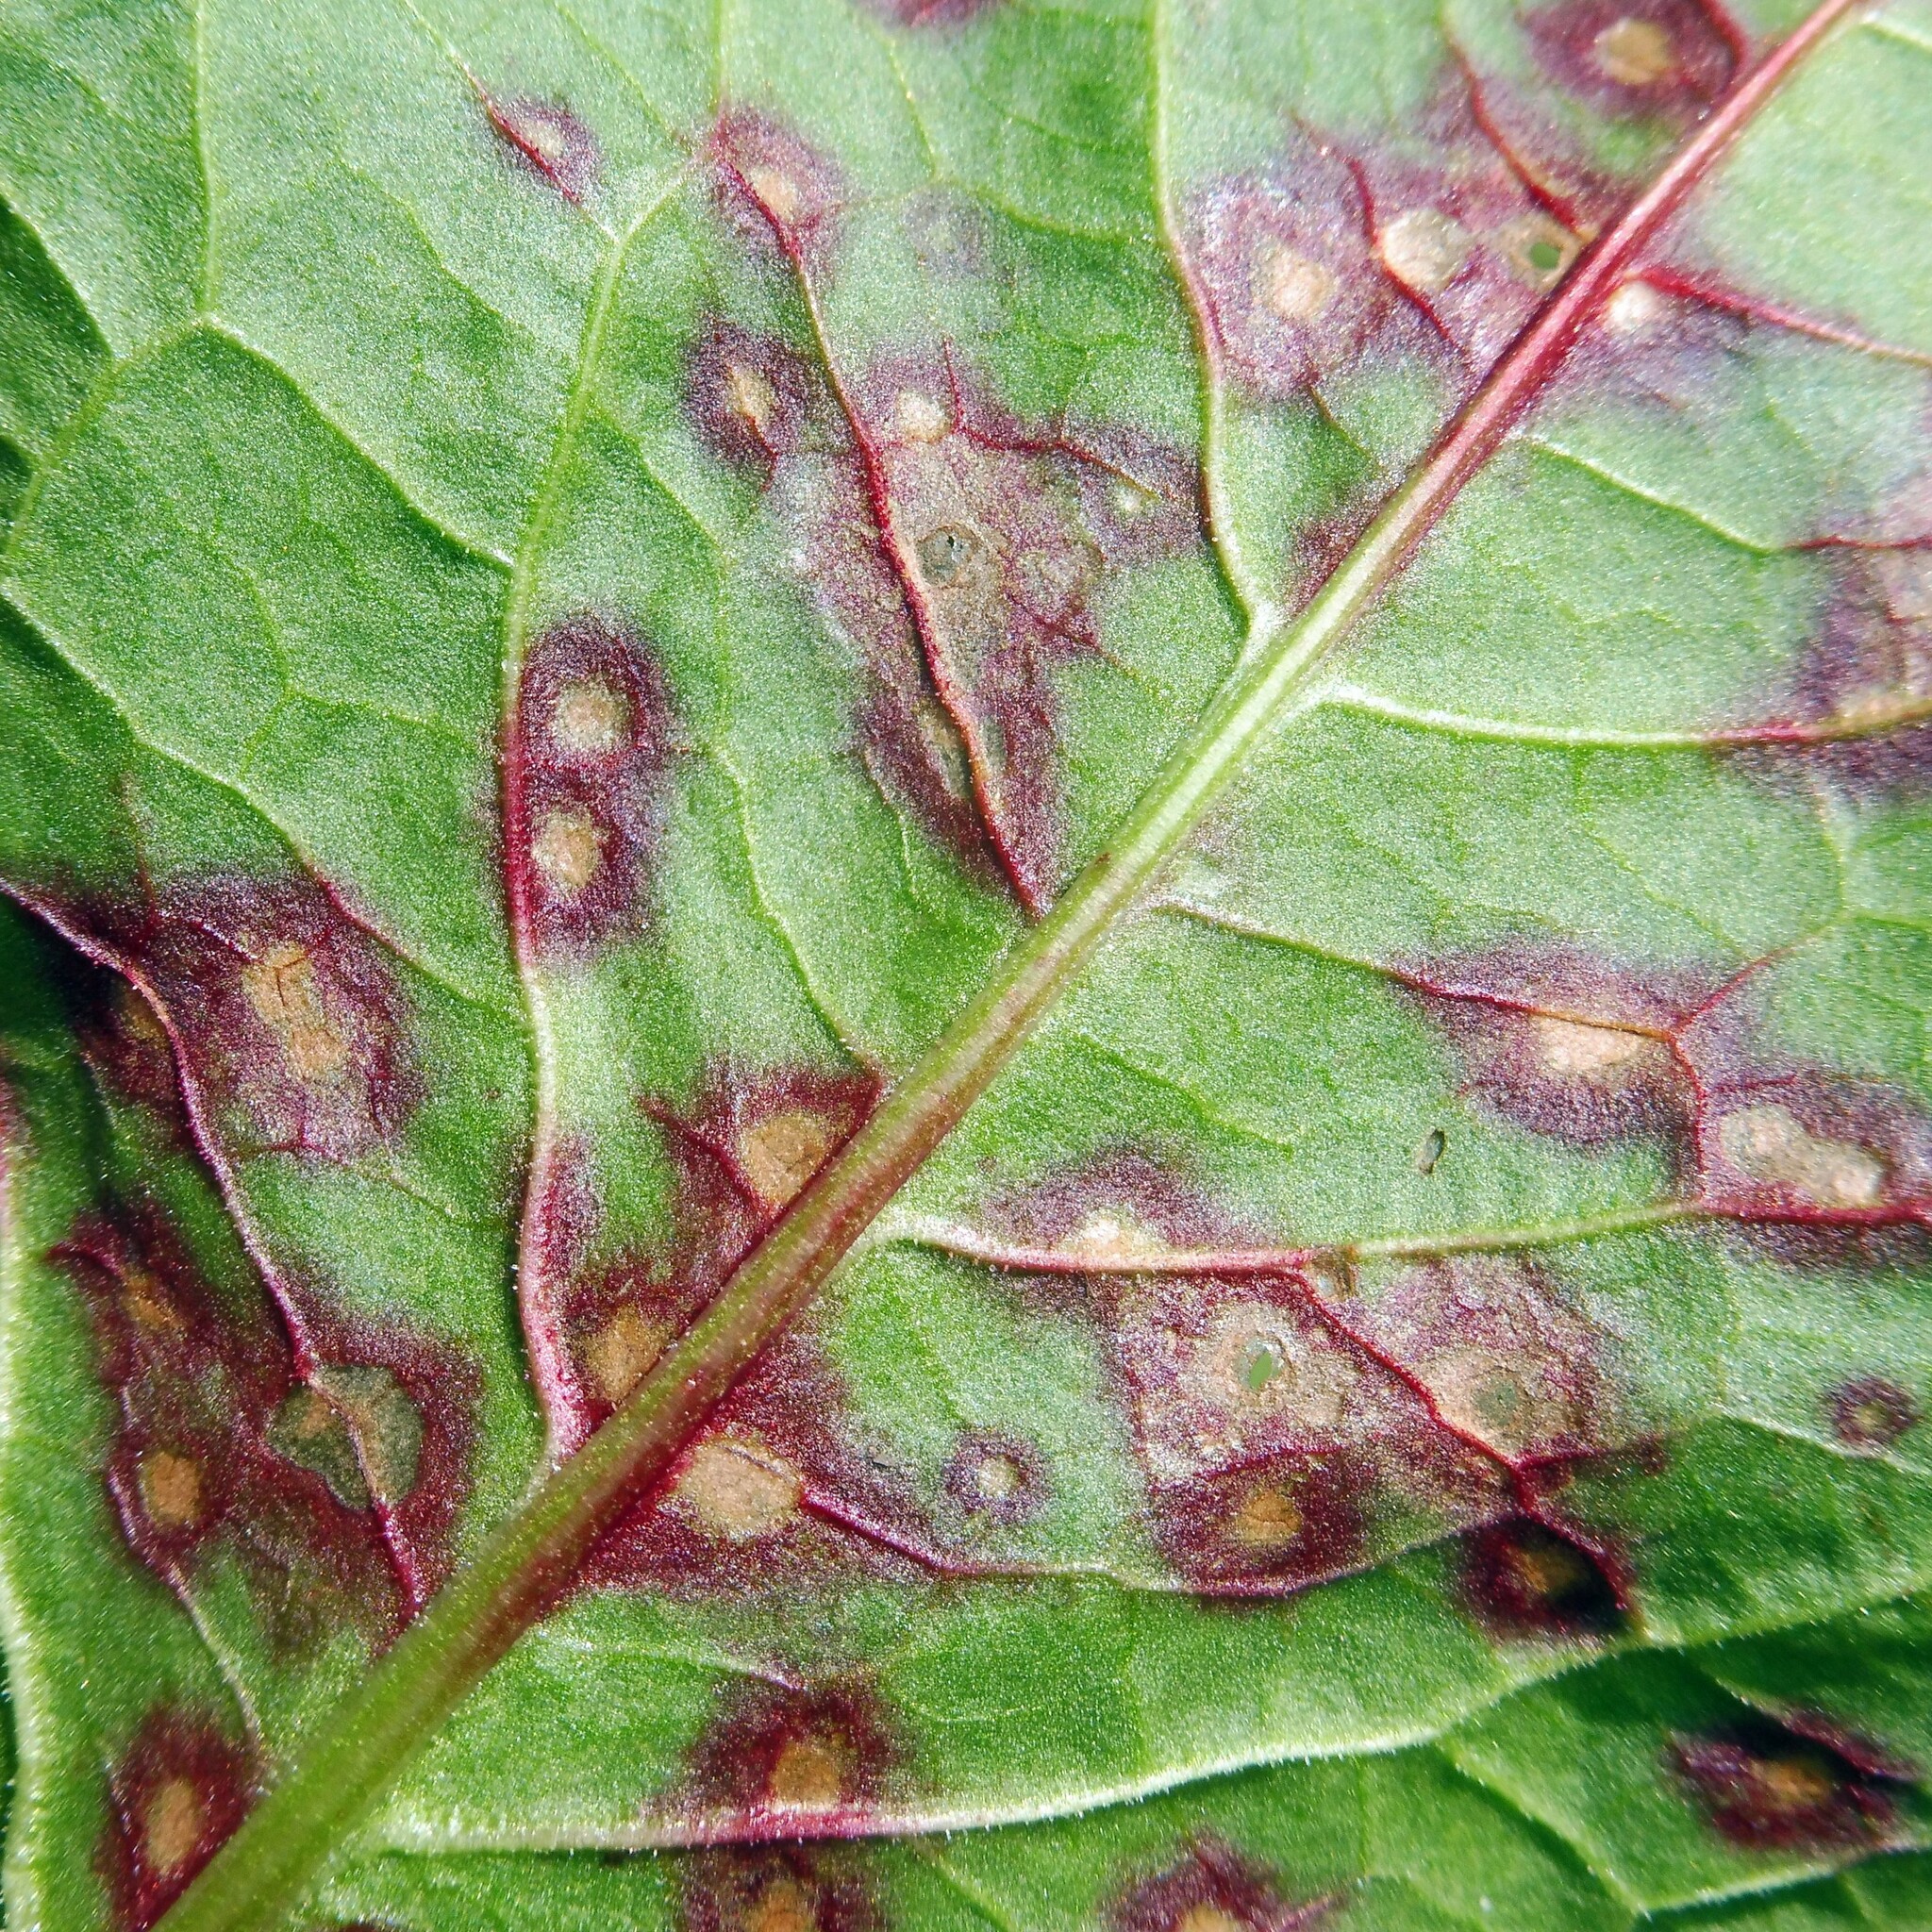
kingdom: Fungi
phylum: Ascomycota
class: Dothideomycetes
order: Mycosphaerellales
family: Mycosphaerellaceae
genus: Ramularia
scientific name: Ramularia rubella
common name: Red dock spot
